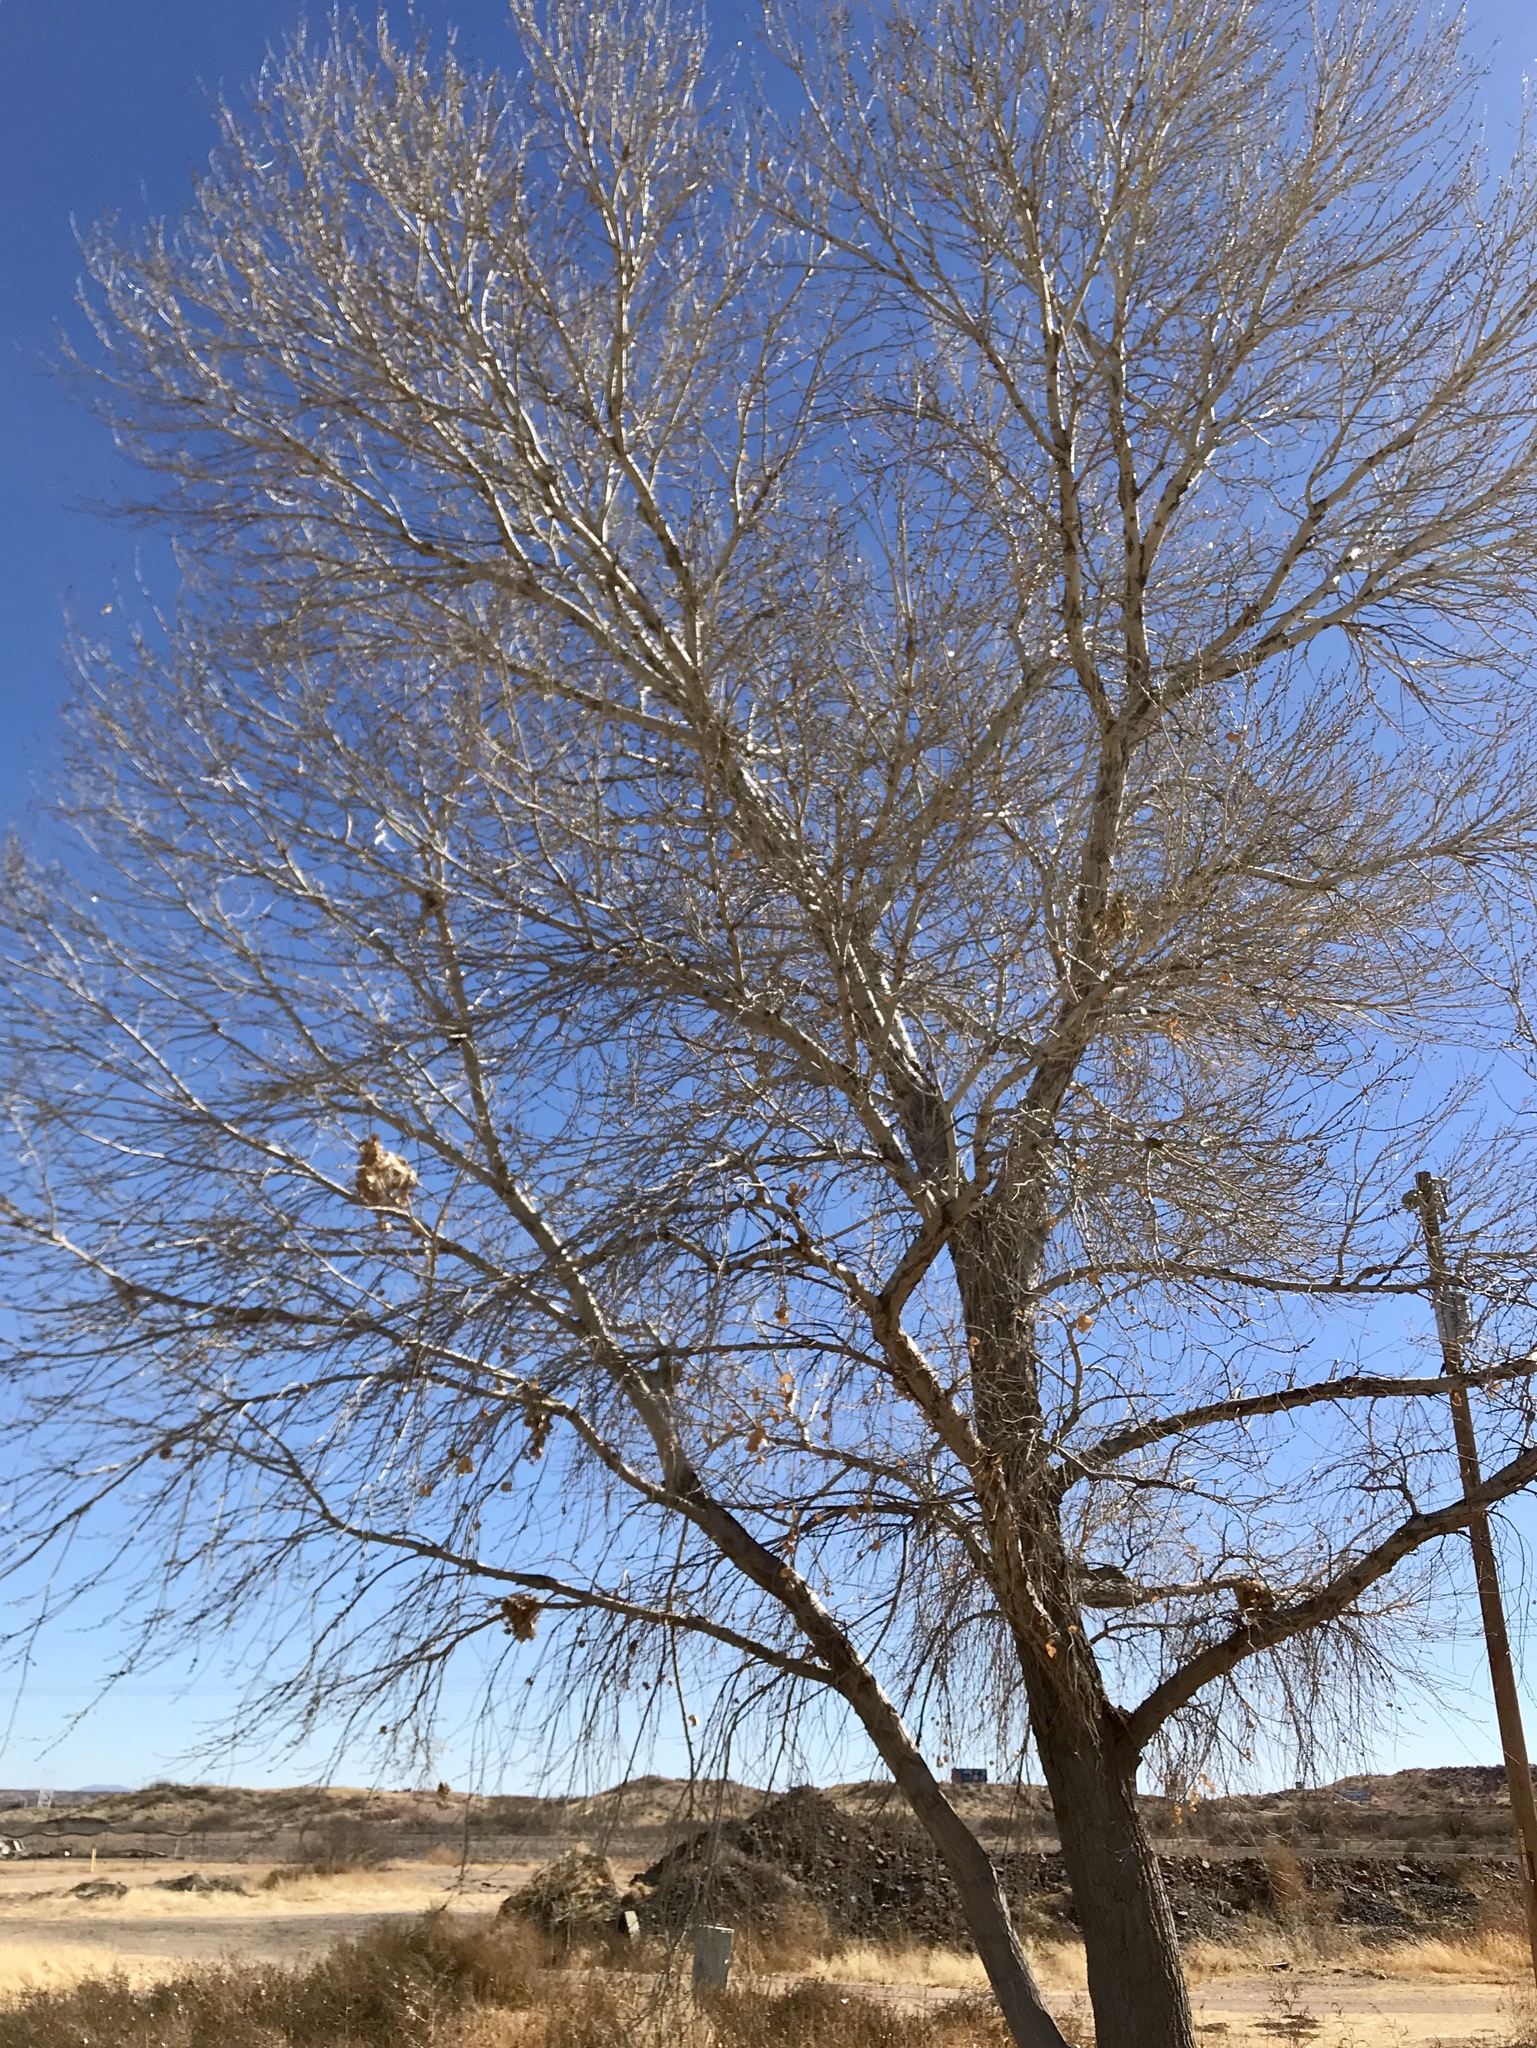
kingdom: Plantae
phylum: Tracheophyta
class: Magnoliopsida
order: Malpighiales
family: Salicaceae
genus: Populus
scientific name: Populus fremontii
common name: Fremont's cottonwood
